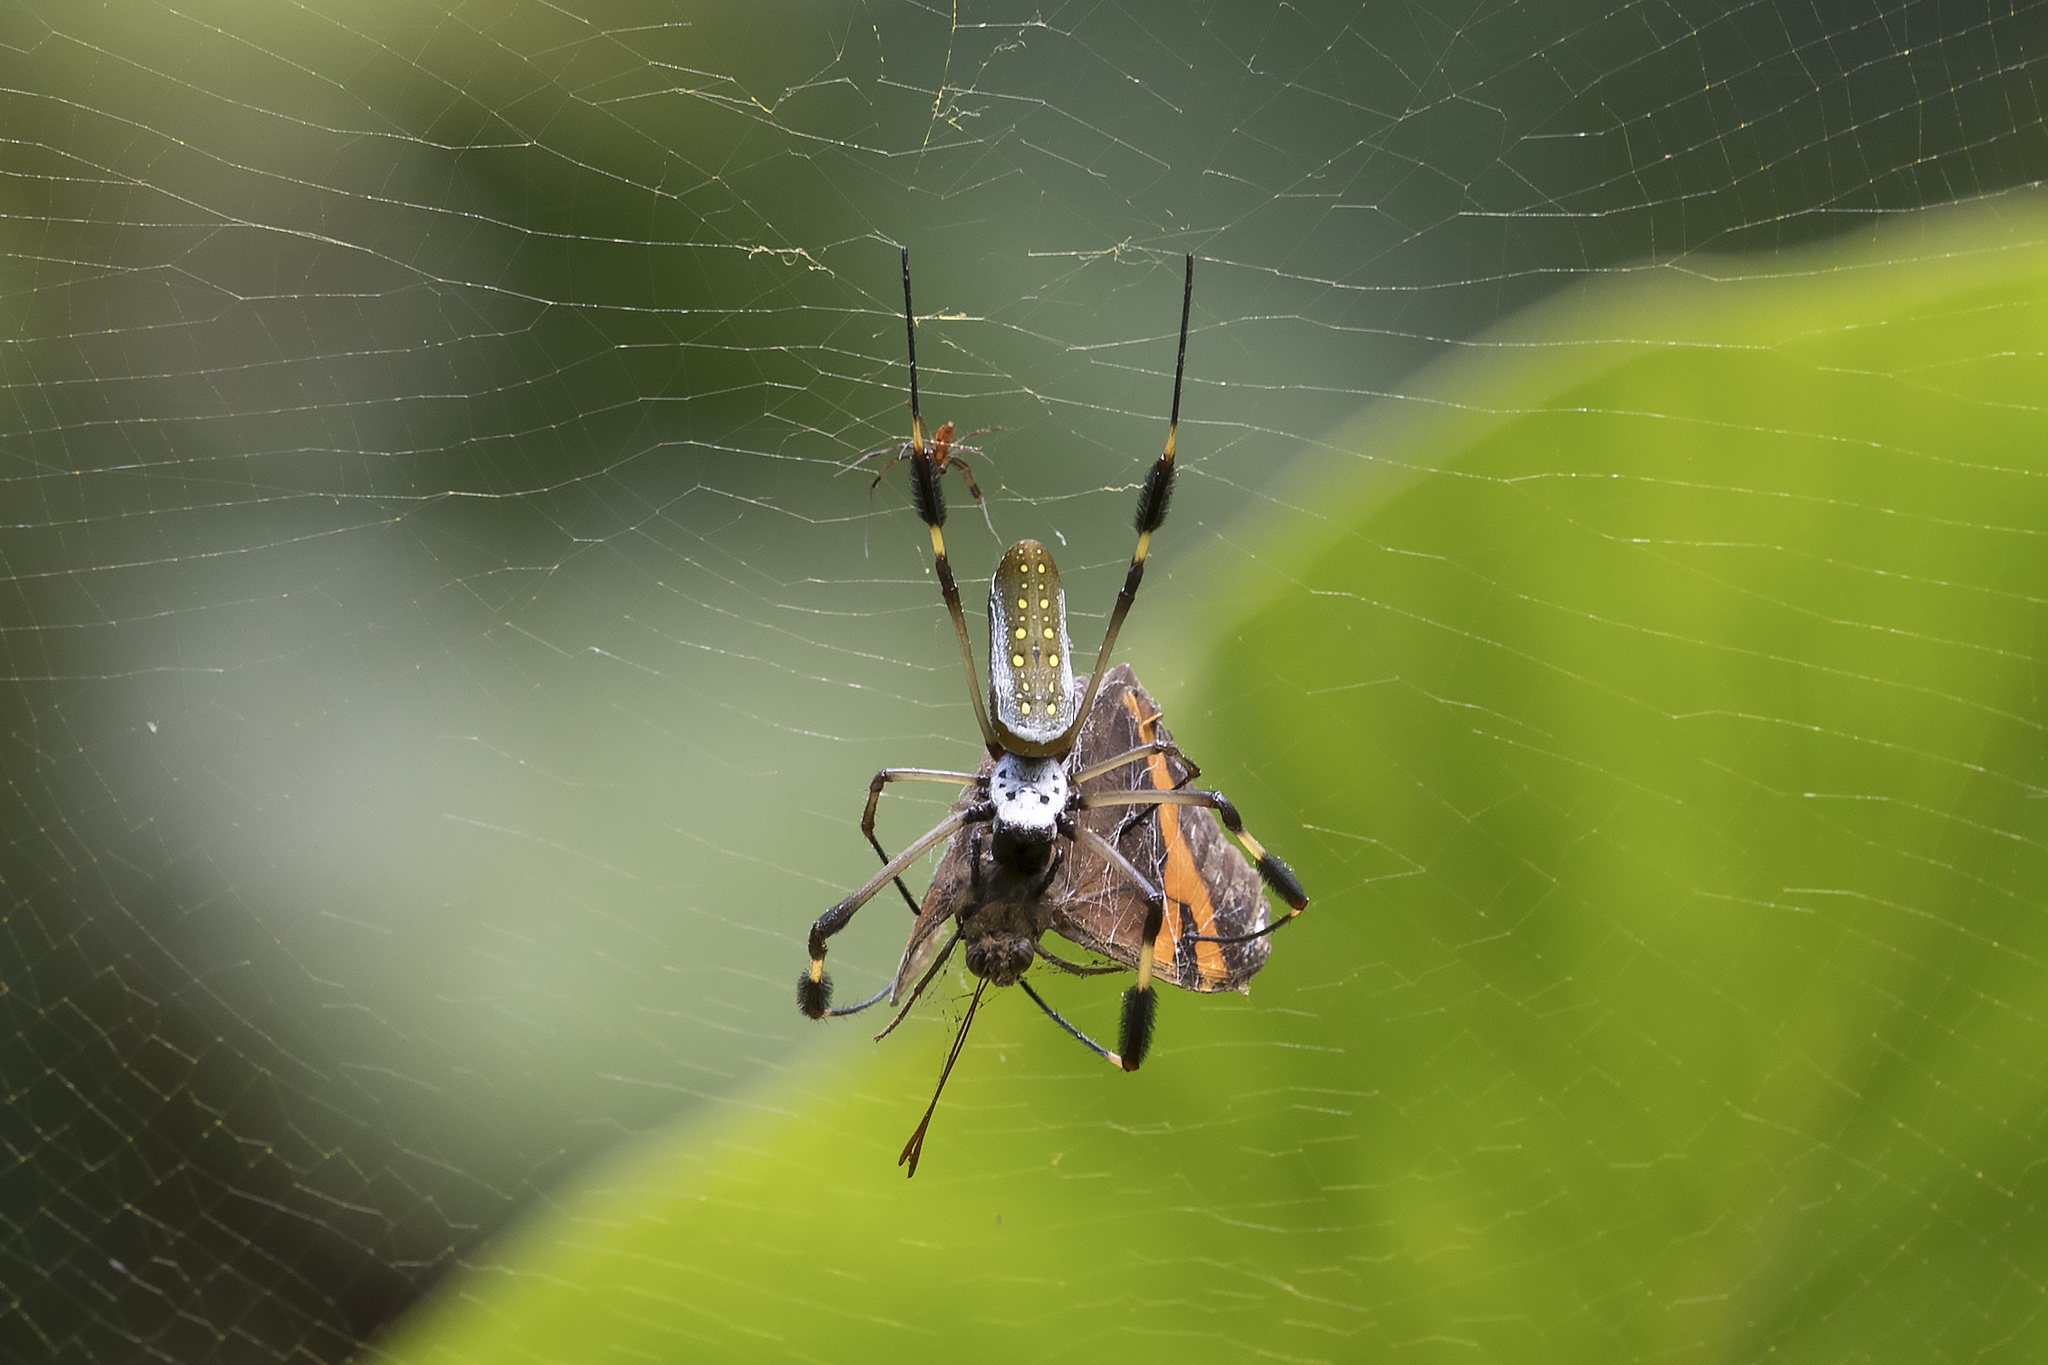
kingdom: Animalia
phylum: Arthropoda
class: Arachnida
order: Araneae
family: Araneidae
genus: Trichonephila
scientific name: Trichonephila clavipes
